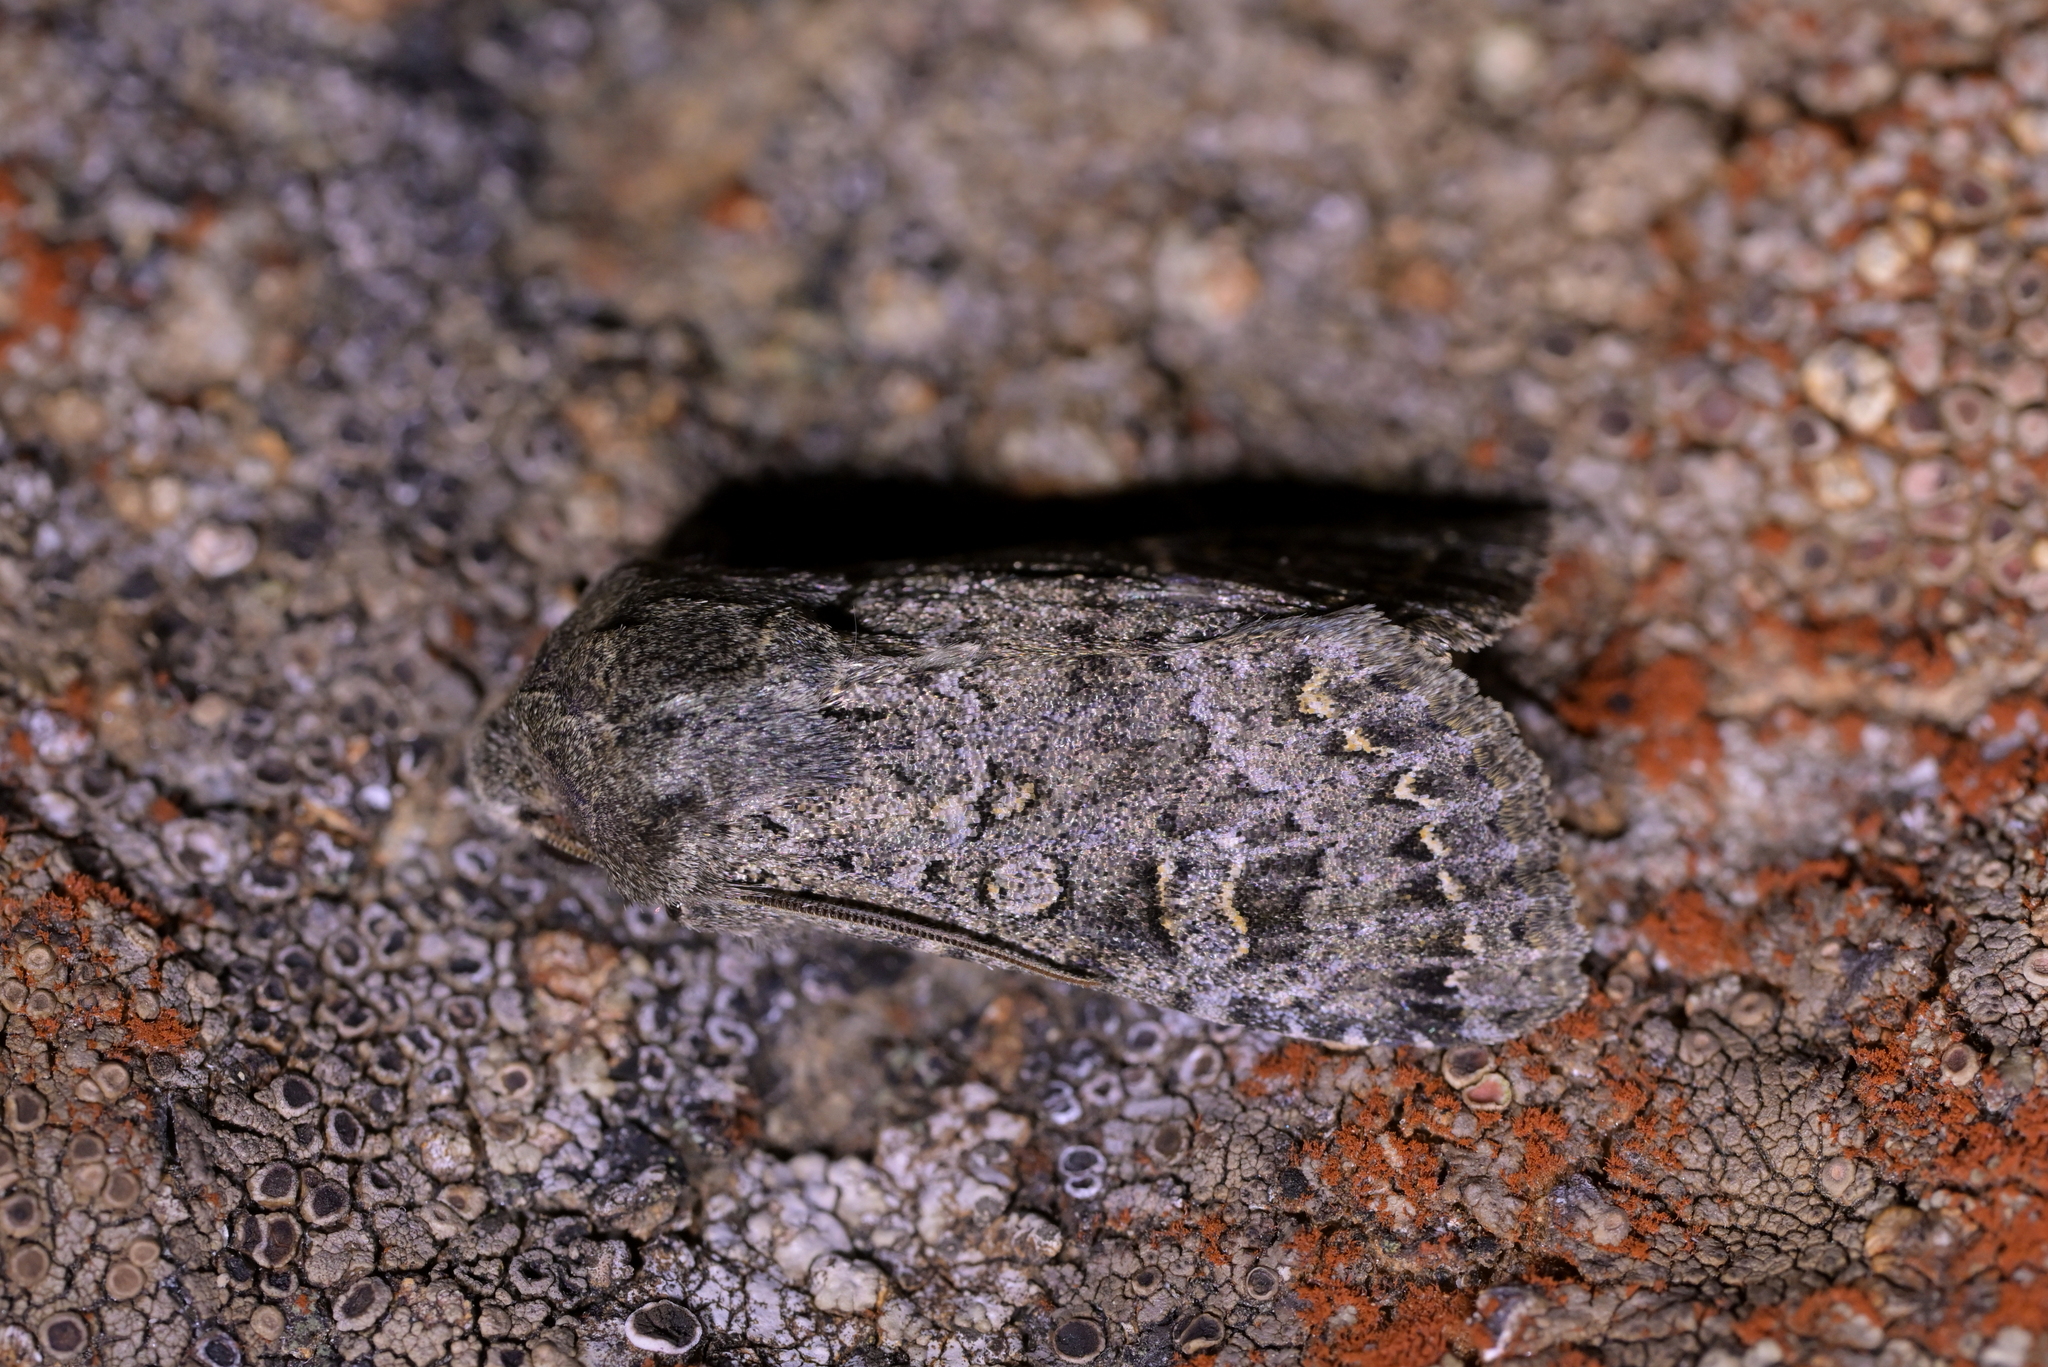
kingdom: Animalia
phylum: Arthropoda
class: Insecta
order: Lepidoptera
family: Noctuidae
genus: Ichneutica
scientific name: Ichneutica
